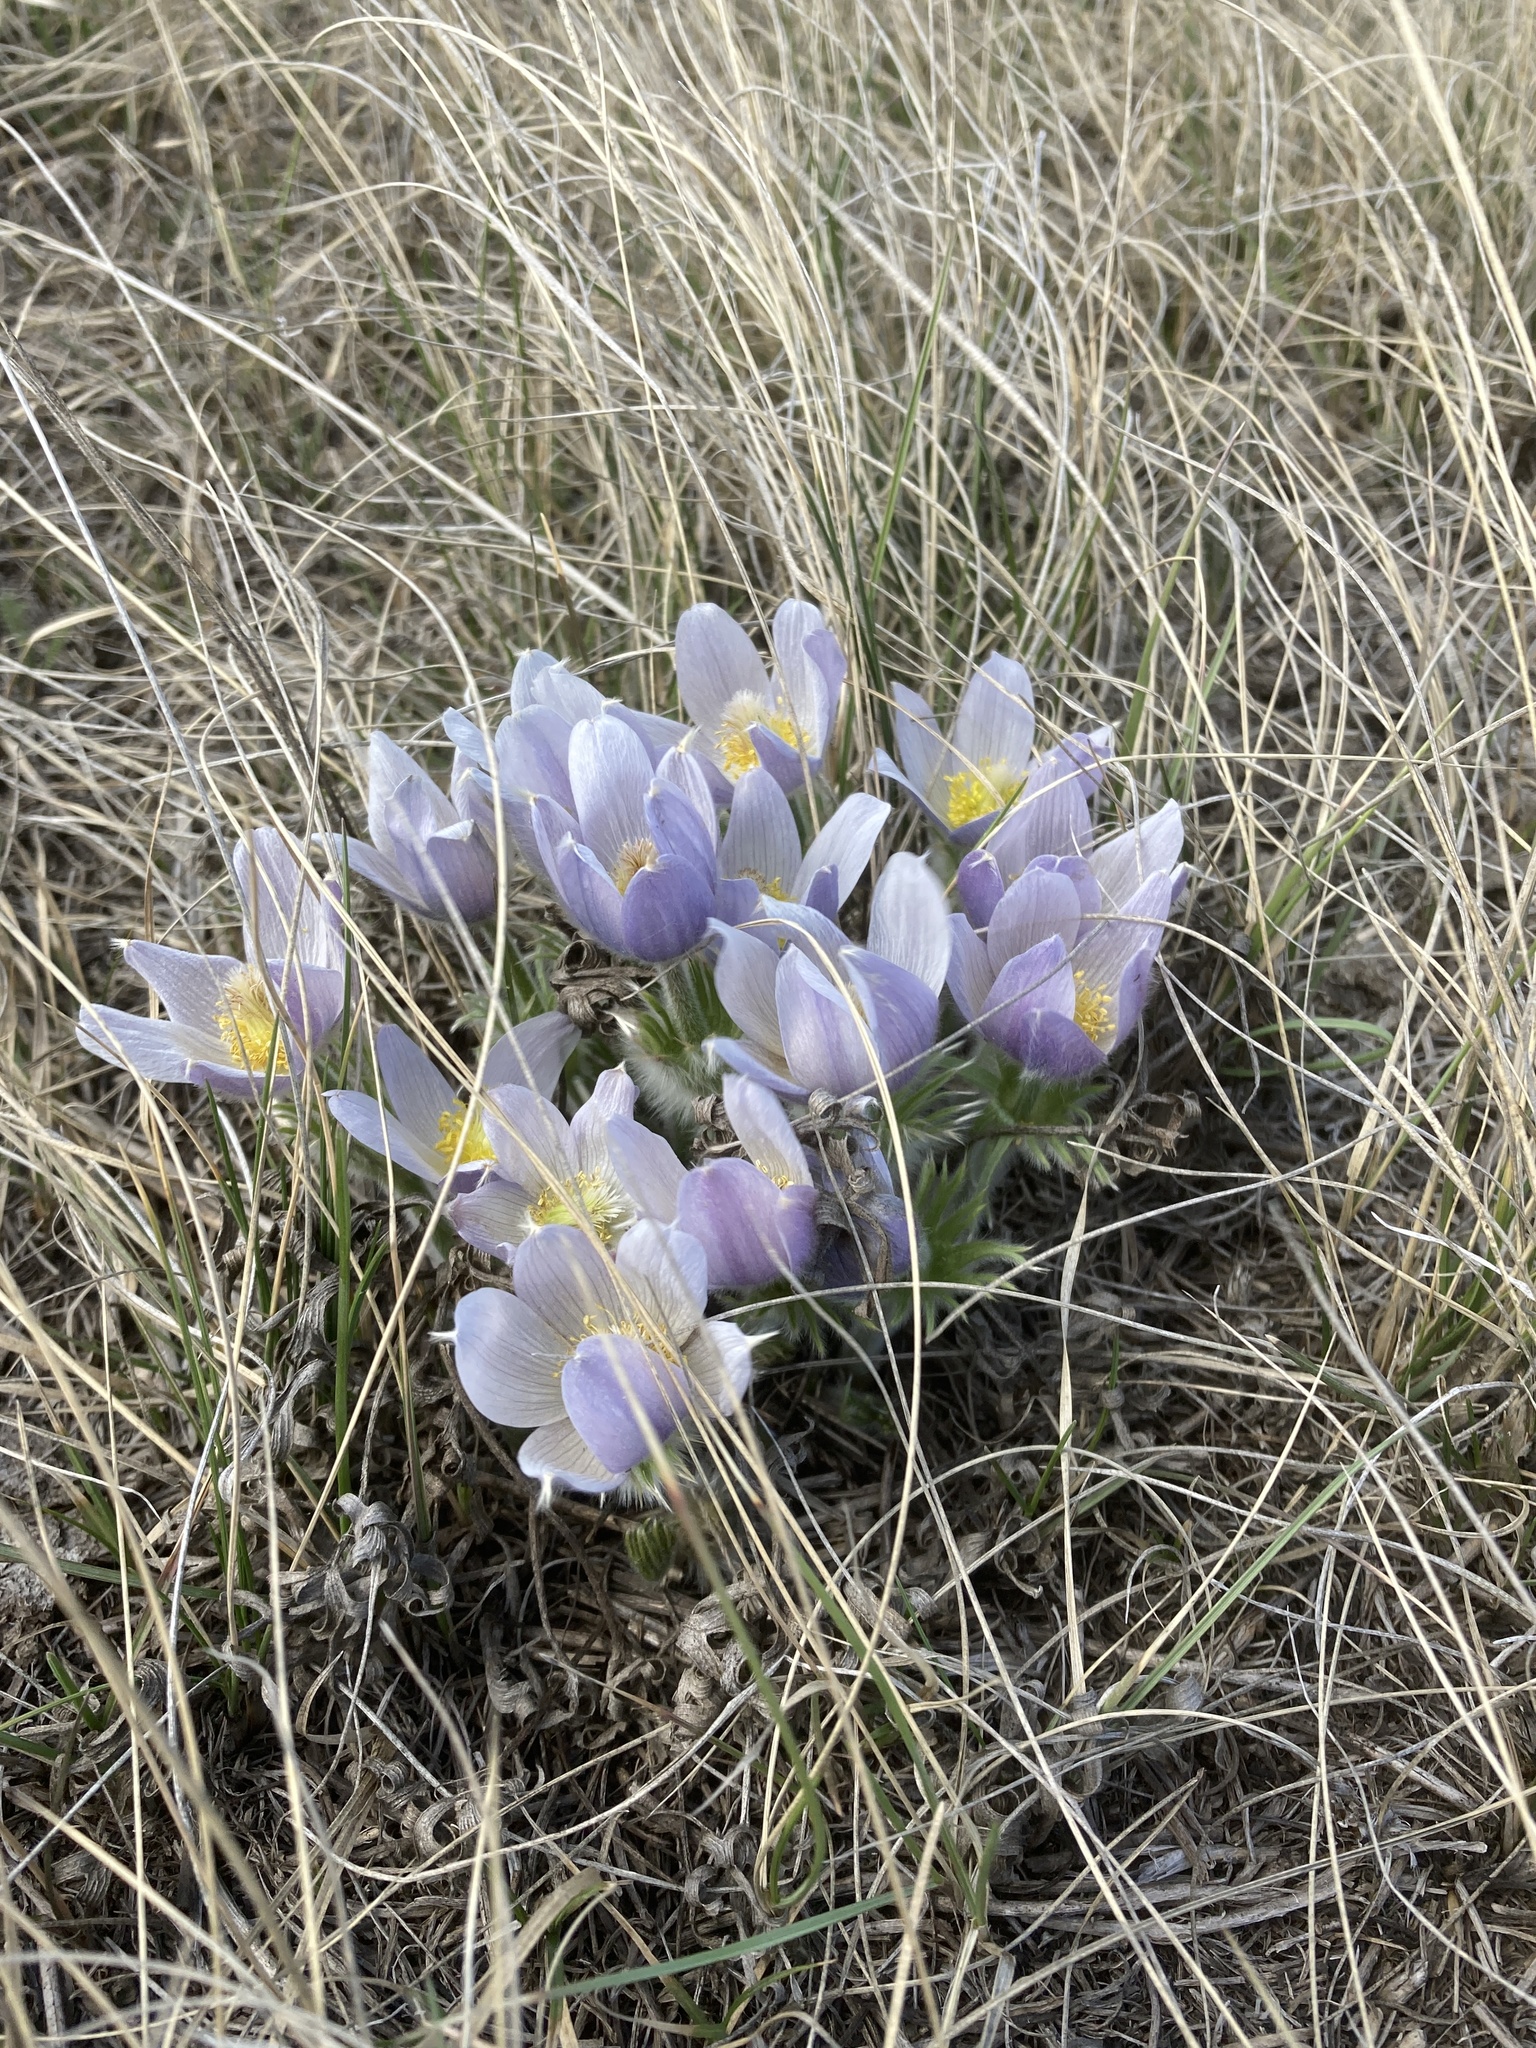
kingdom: Plantae
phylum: Tracheophyta
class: Magnoliopsida
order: Ranunculales
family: Ranunculaceae
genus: Pulsatilla
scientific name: Pulsatilla nuttalliana
